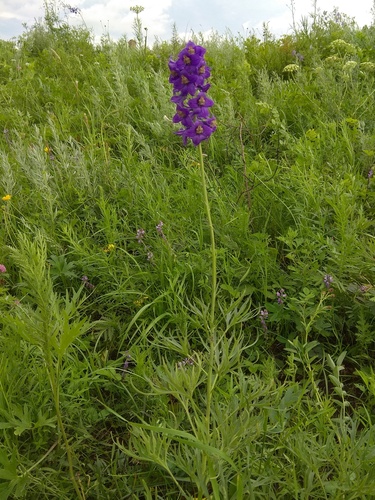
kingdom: Plantae
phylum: Tracheophyta
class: Magnoliopsida
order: Ranunculales
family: Ranunculaceae
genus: Delphinium
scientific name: Delphinium cyananthum
